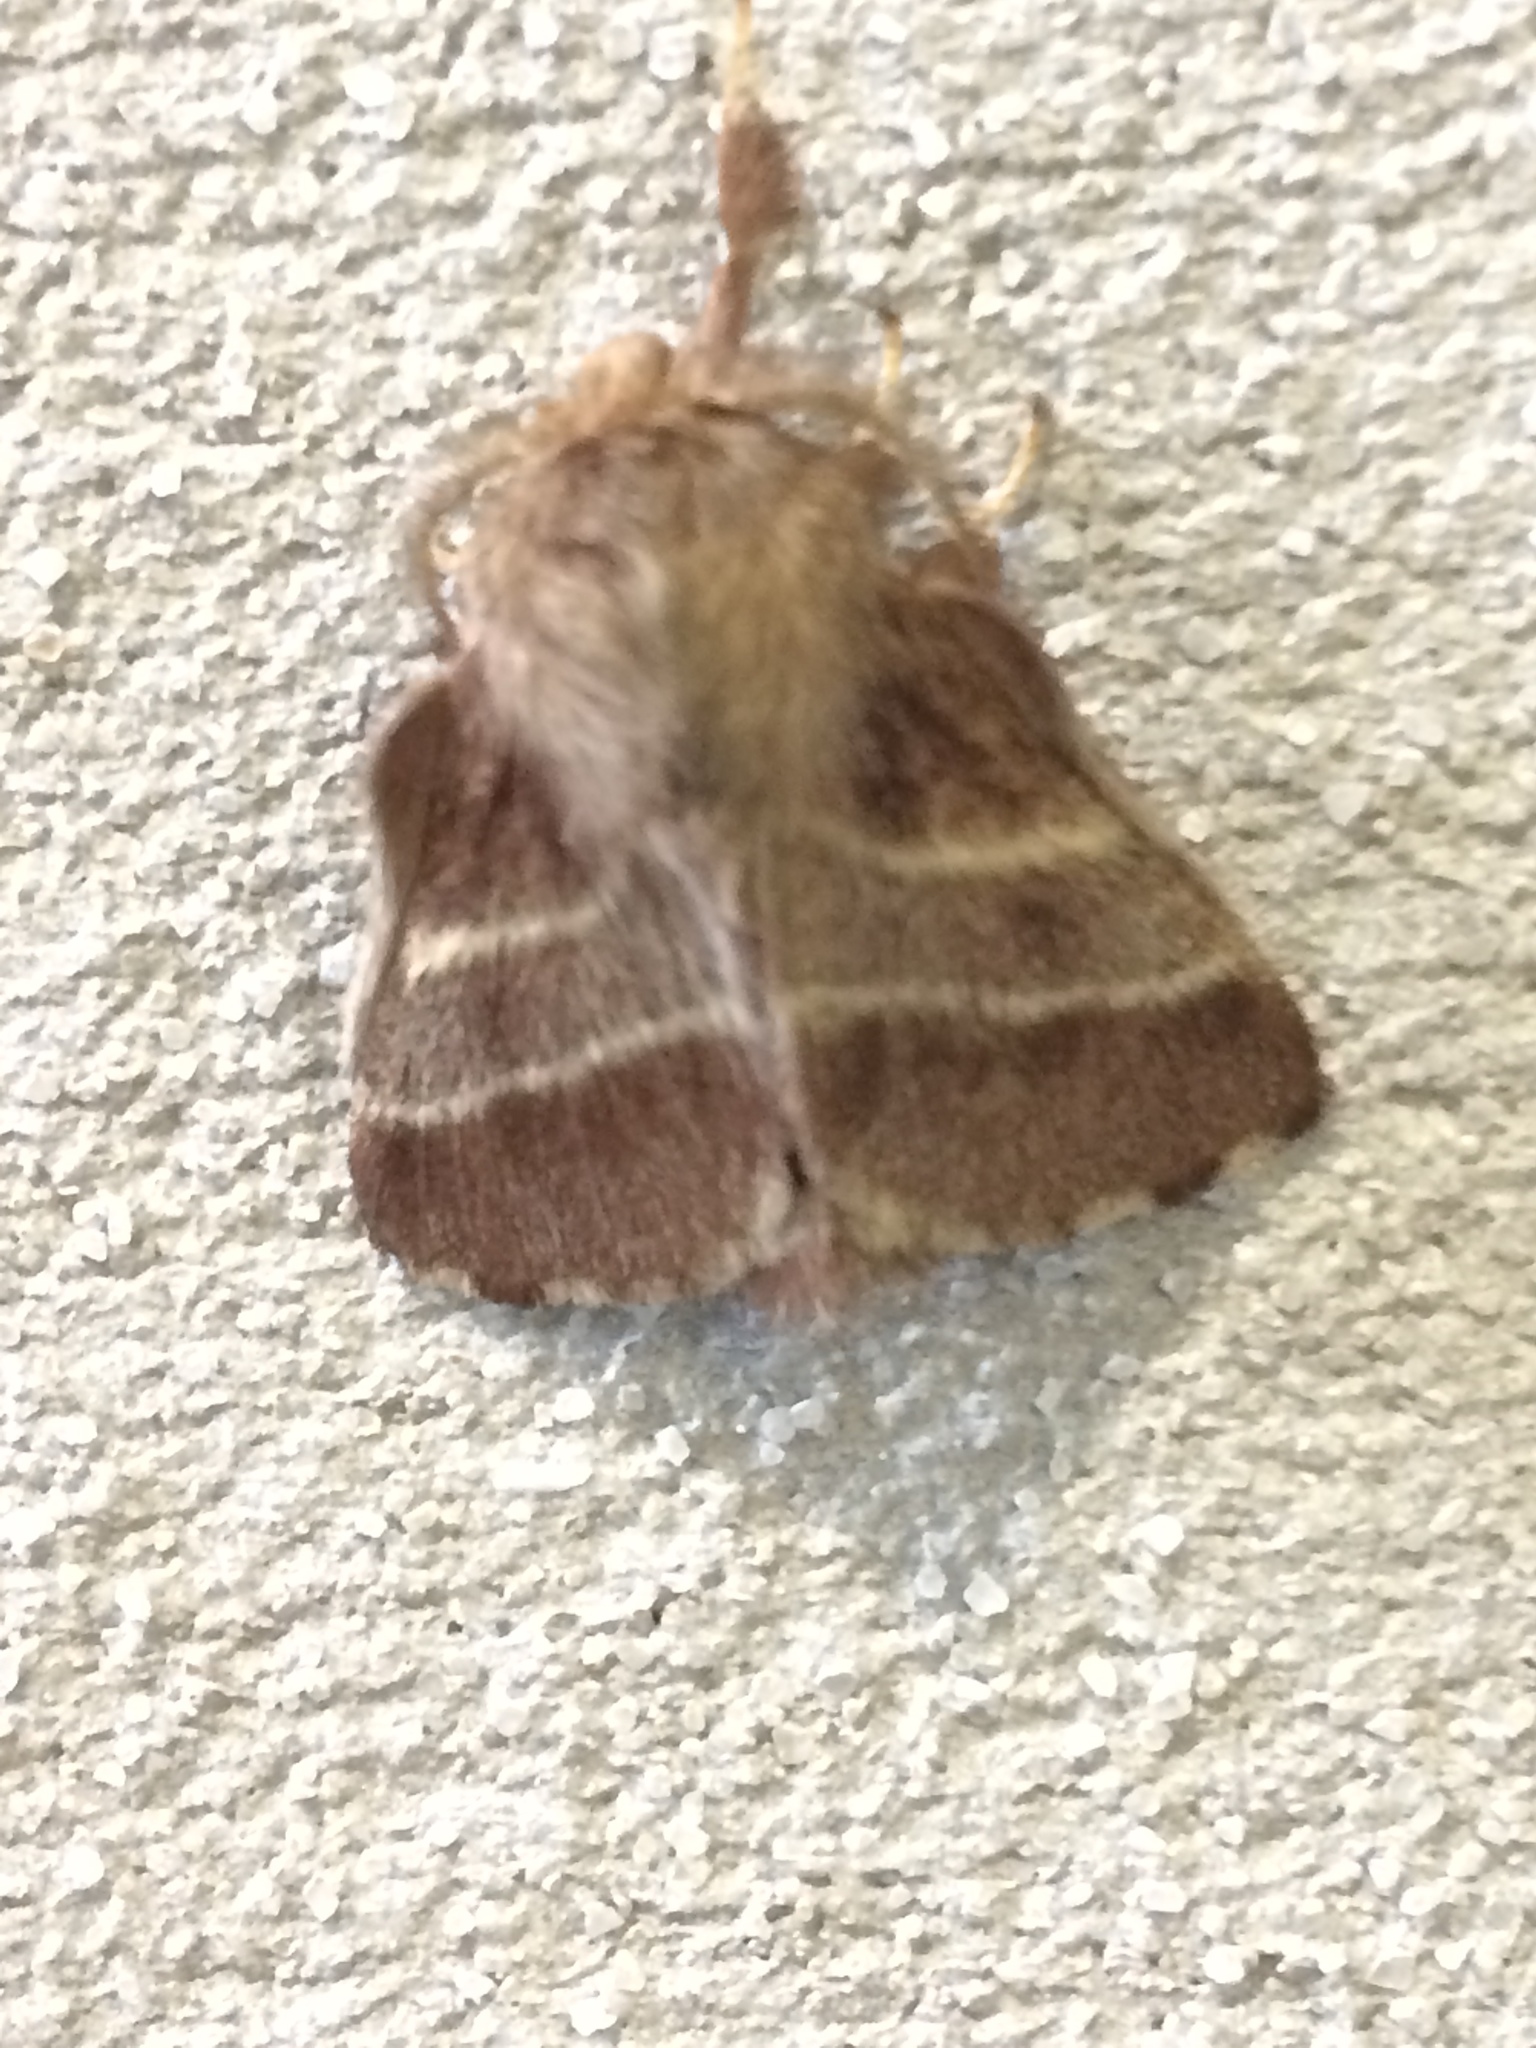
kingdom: Animalia
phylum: Arthropoda
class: Insecta
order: Lepidoptera
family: Lasiocampidae
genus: Malacosoma
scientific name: Malacosoma americana
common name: Eastern tent caterpillar moth
